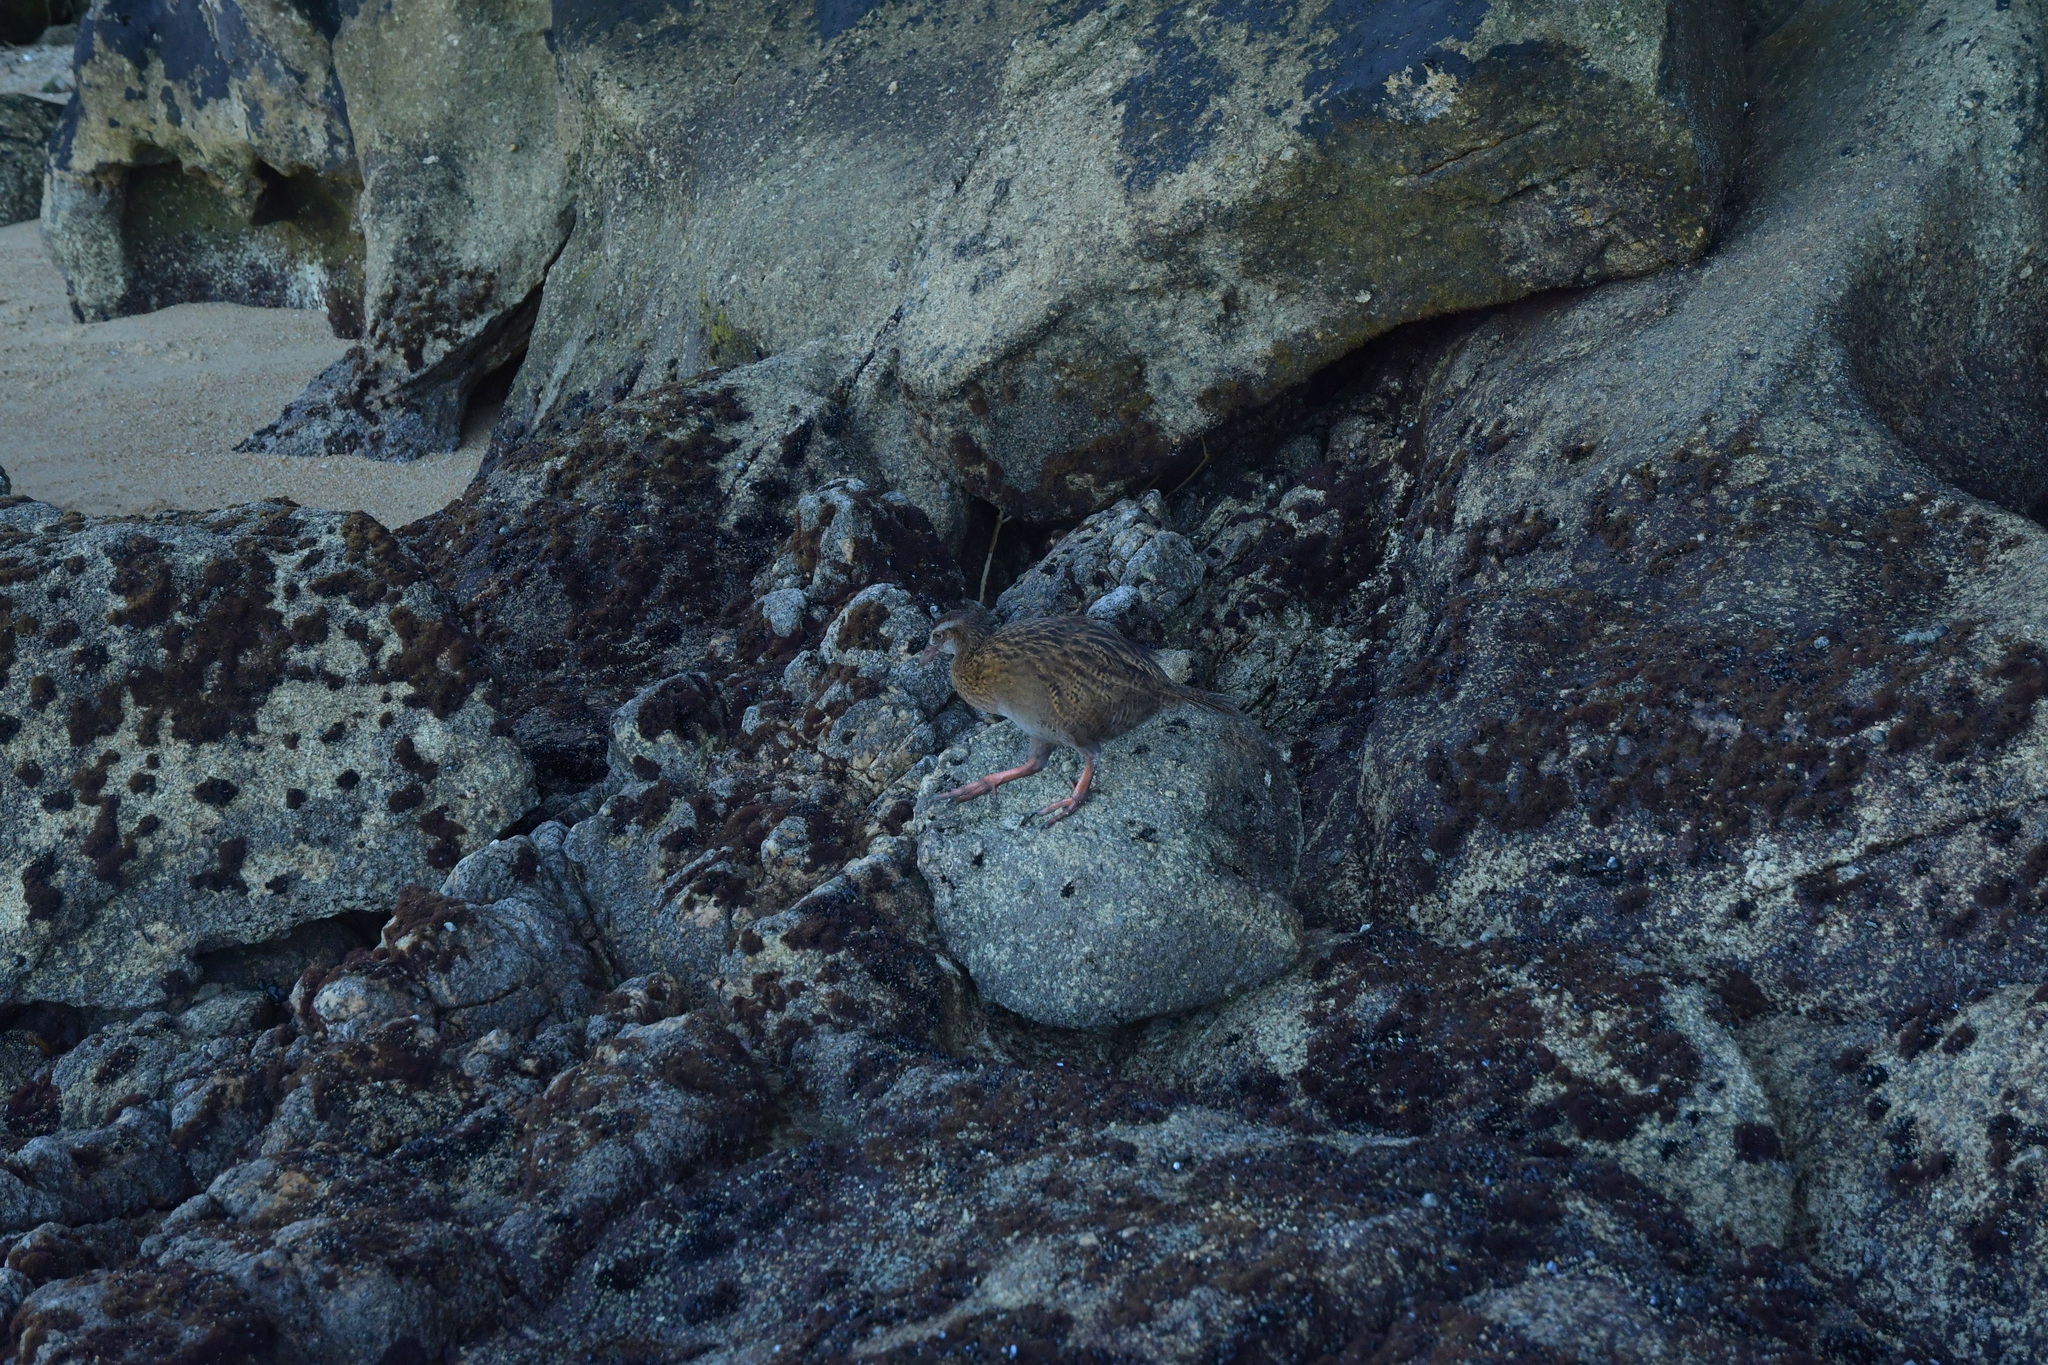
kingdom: Animalia
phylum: Chordata
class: Aves
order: Gruiformes
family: Rallidae
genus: Gallirallus
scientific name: Gallirallus australis
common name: Weka
